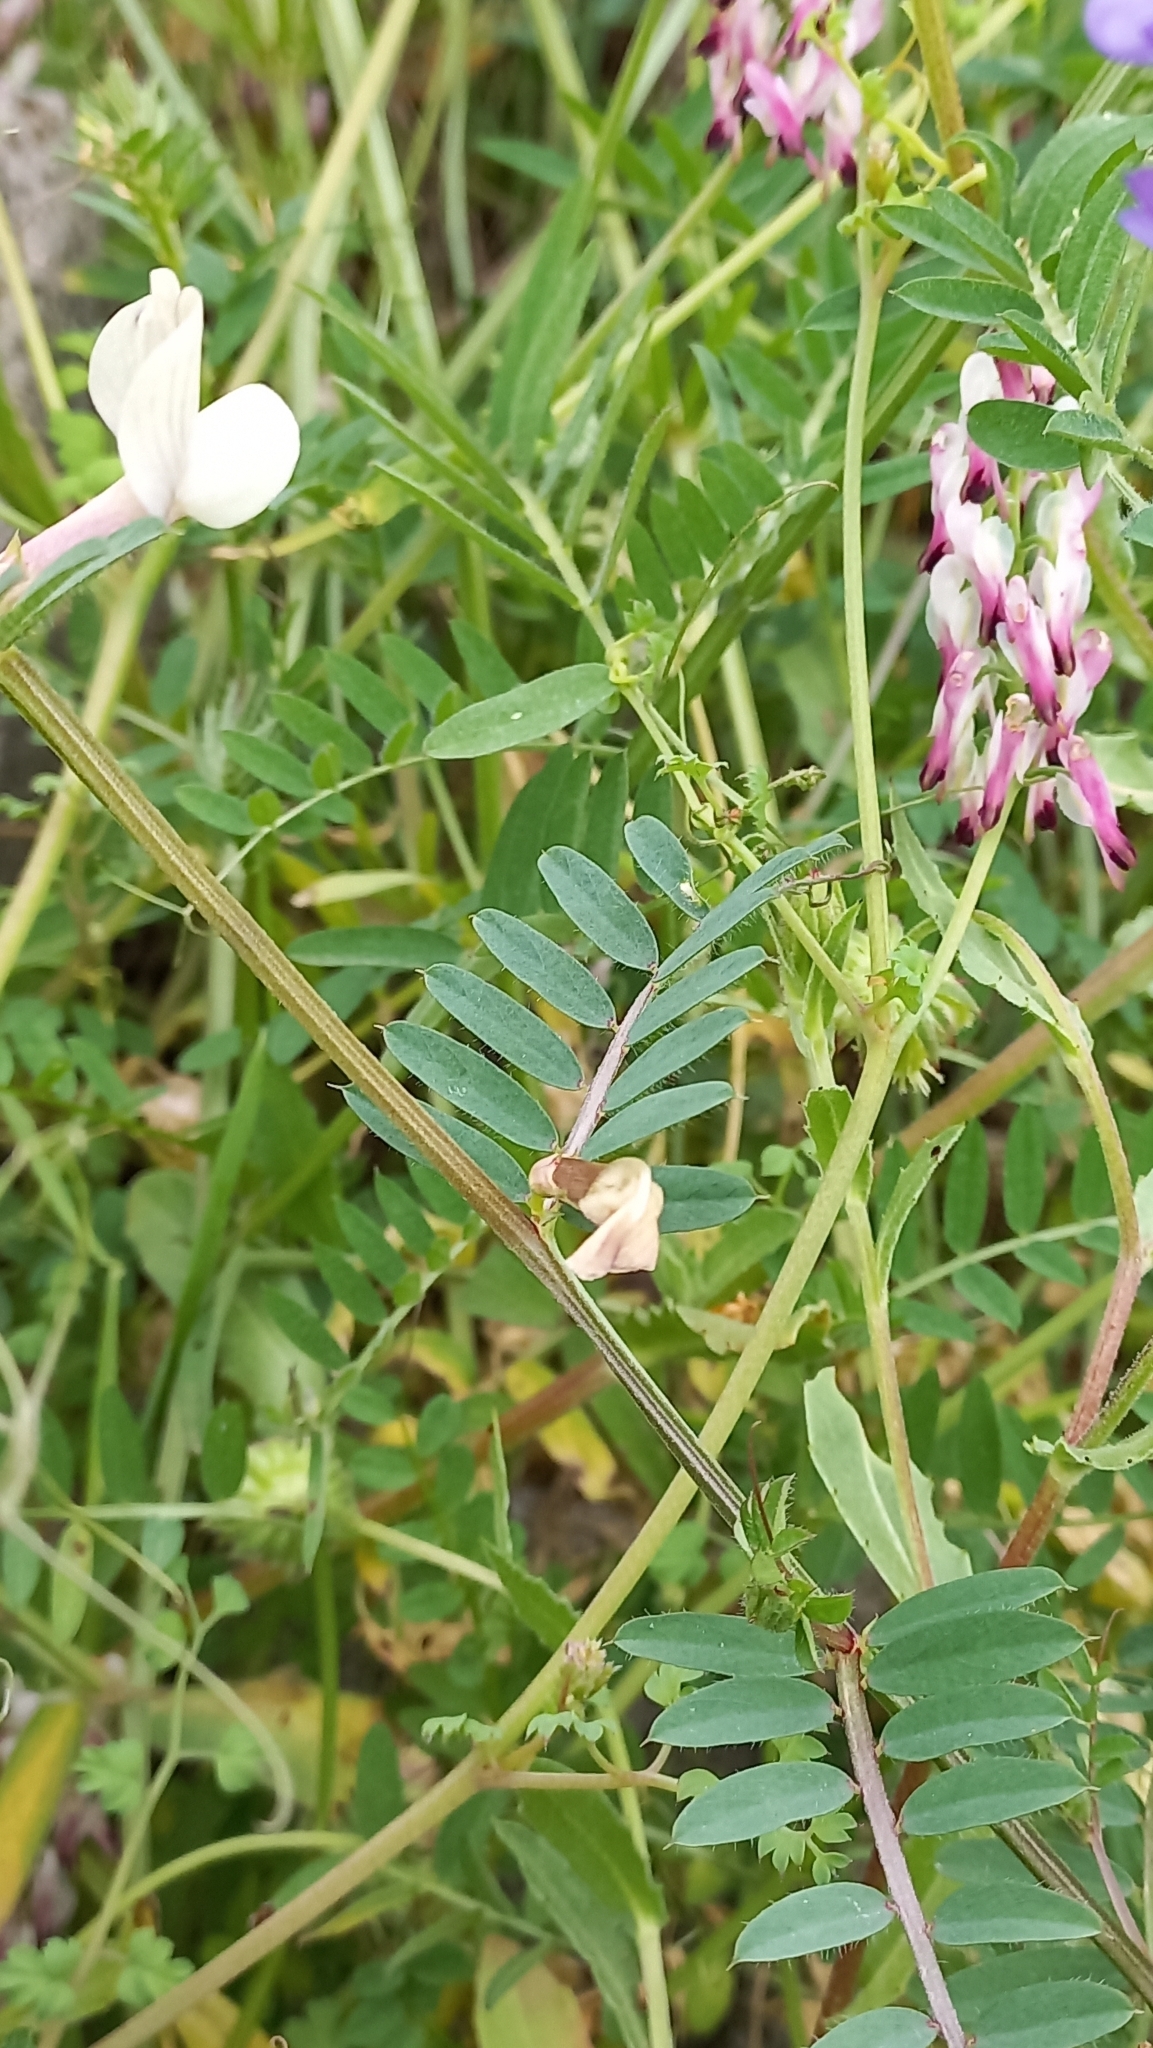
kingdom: Plantae
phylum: Tracheophyta
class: Magnoliopsida
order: Fabales
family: Fabaceae
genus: Vicia
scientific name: Vicia lutea
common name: Smooth yellow vetch
